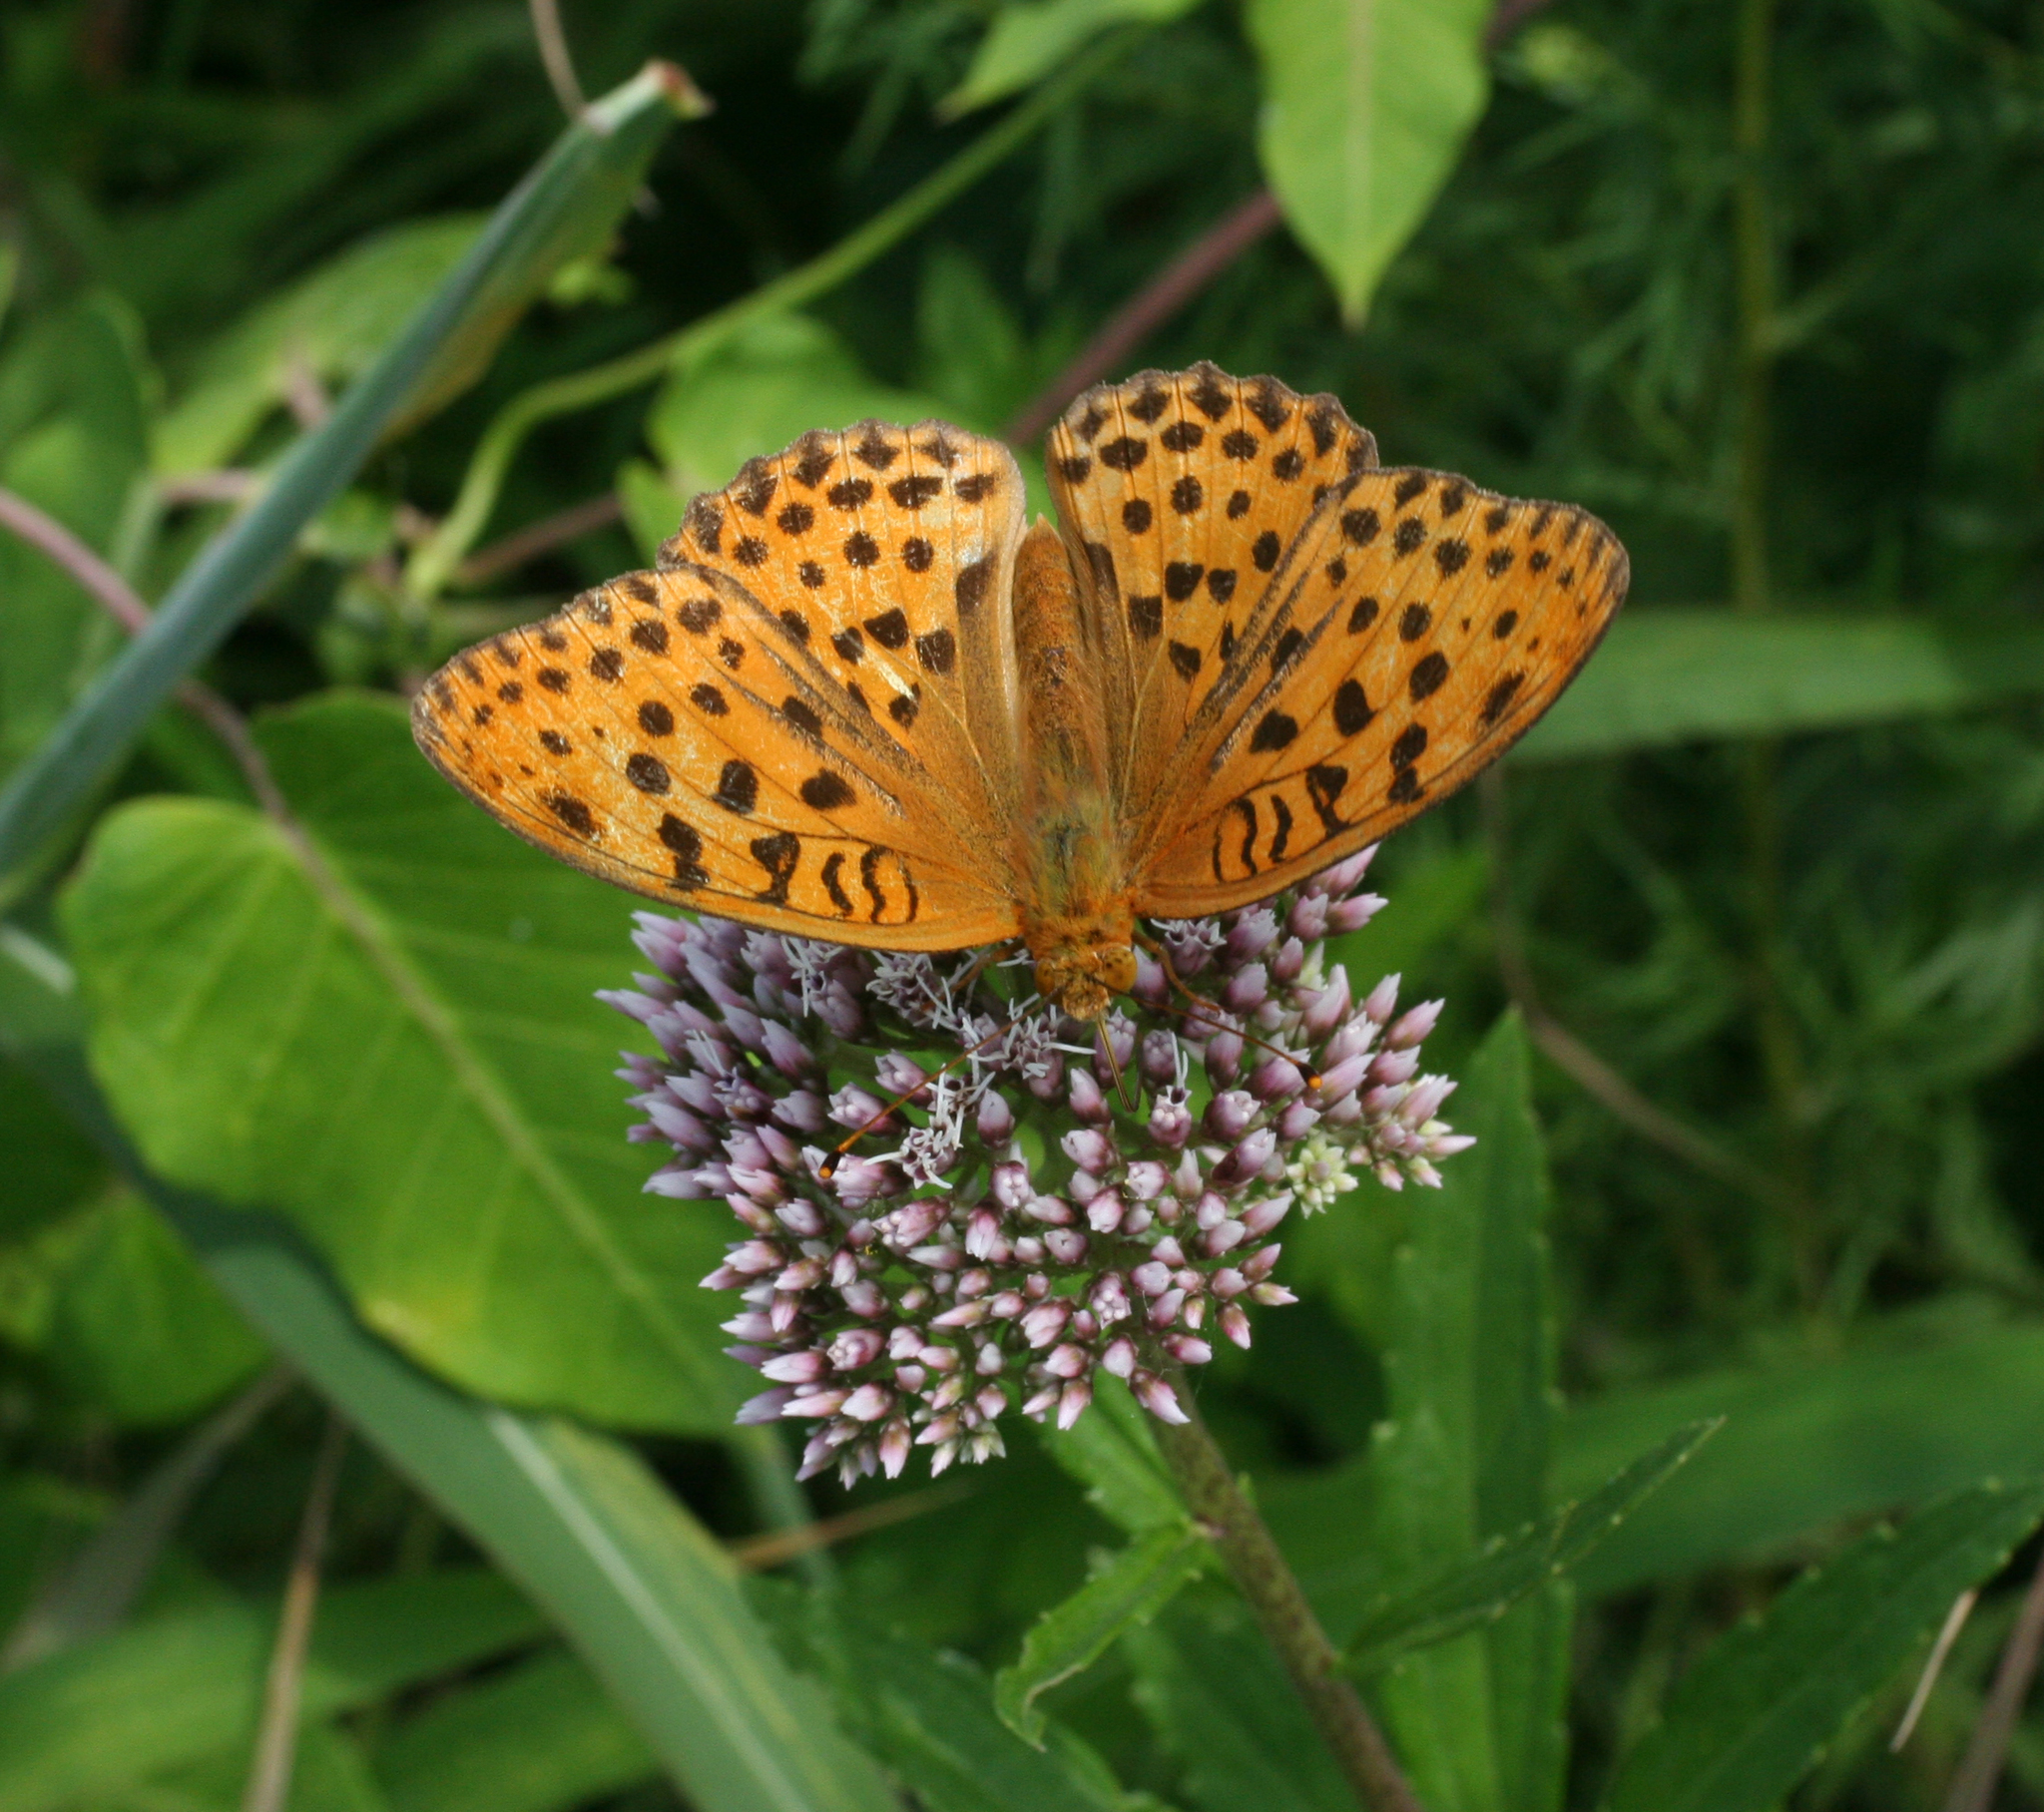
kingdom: Animalia
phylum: Arthropoda
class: Insecta
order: Lepidoptera
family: Nymphalidae
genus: Argyronome
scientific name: Argyronome laodice
